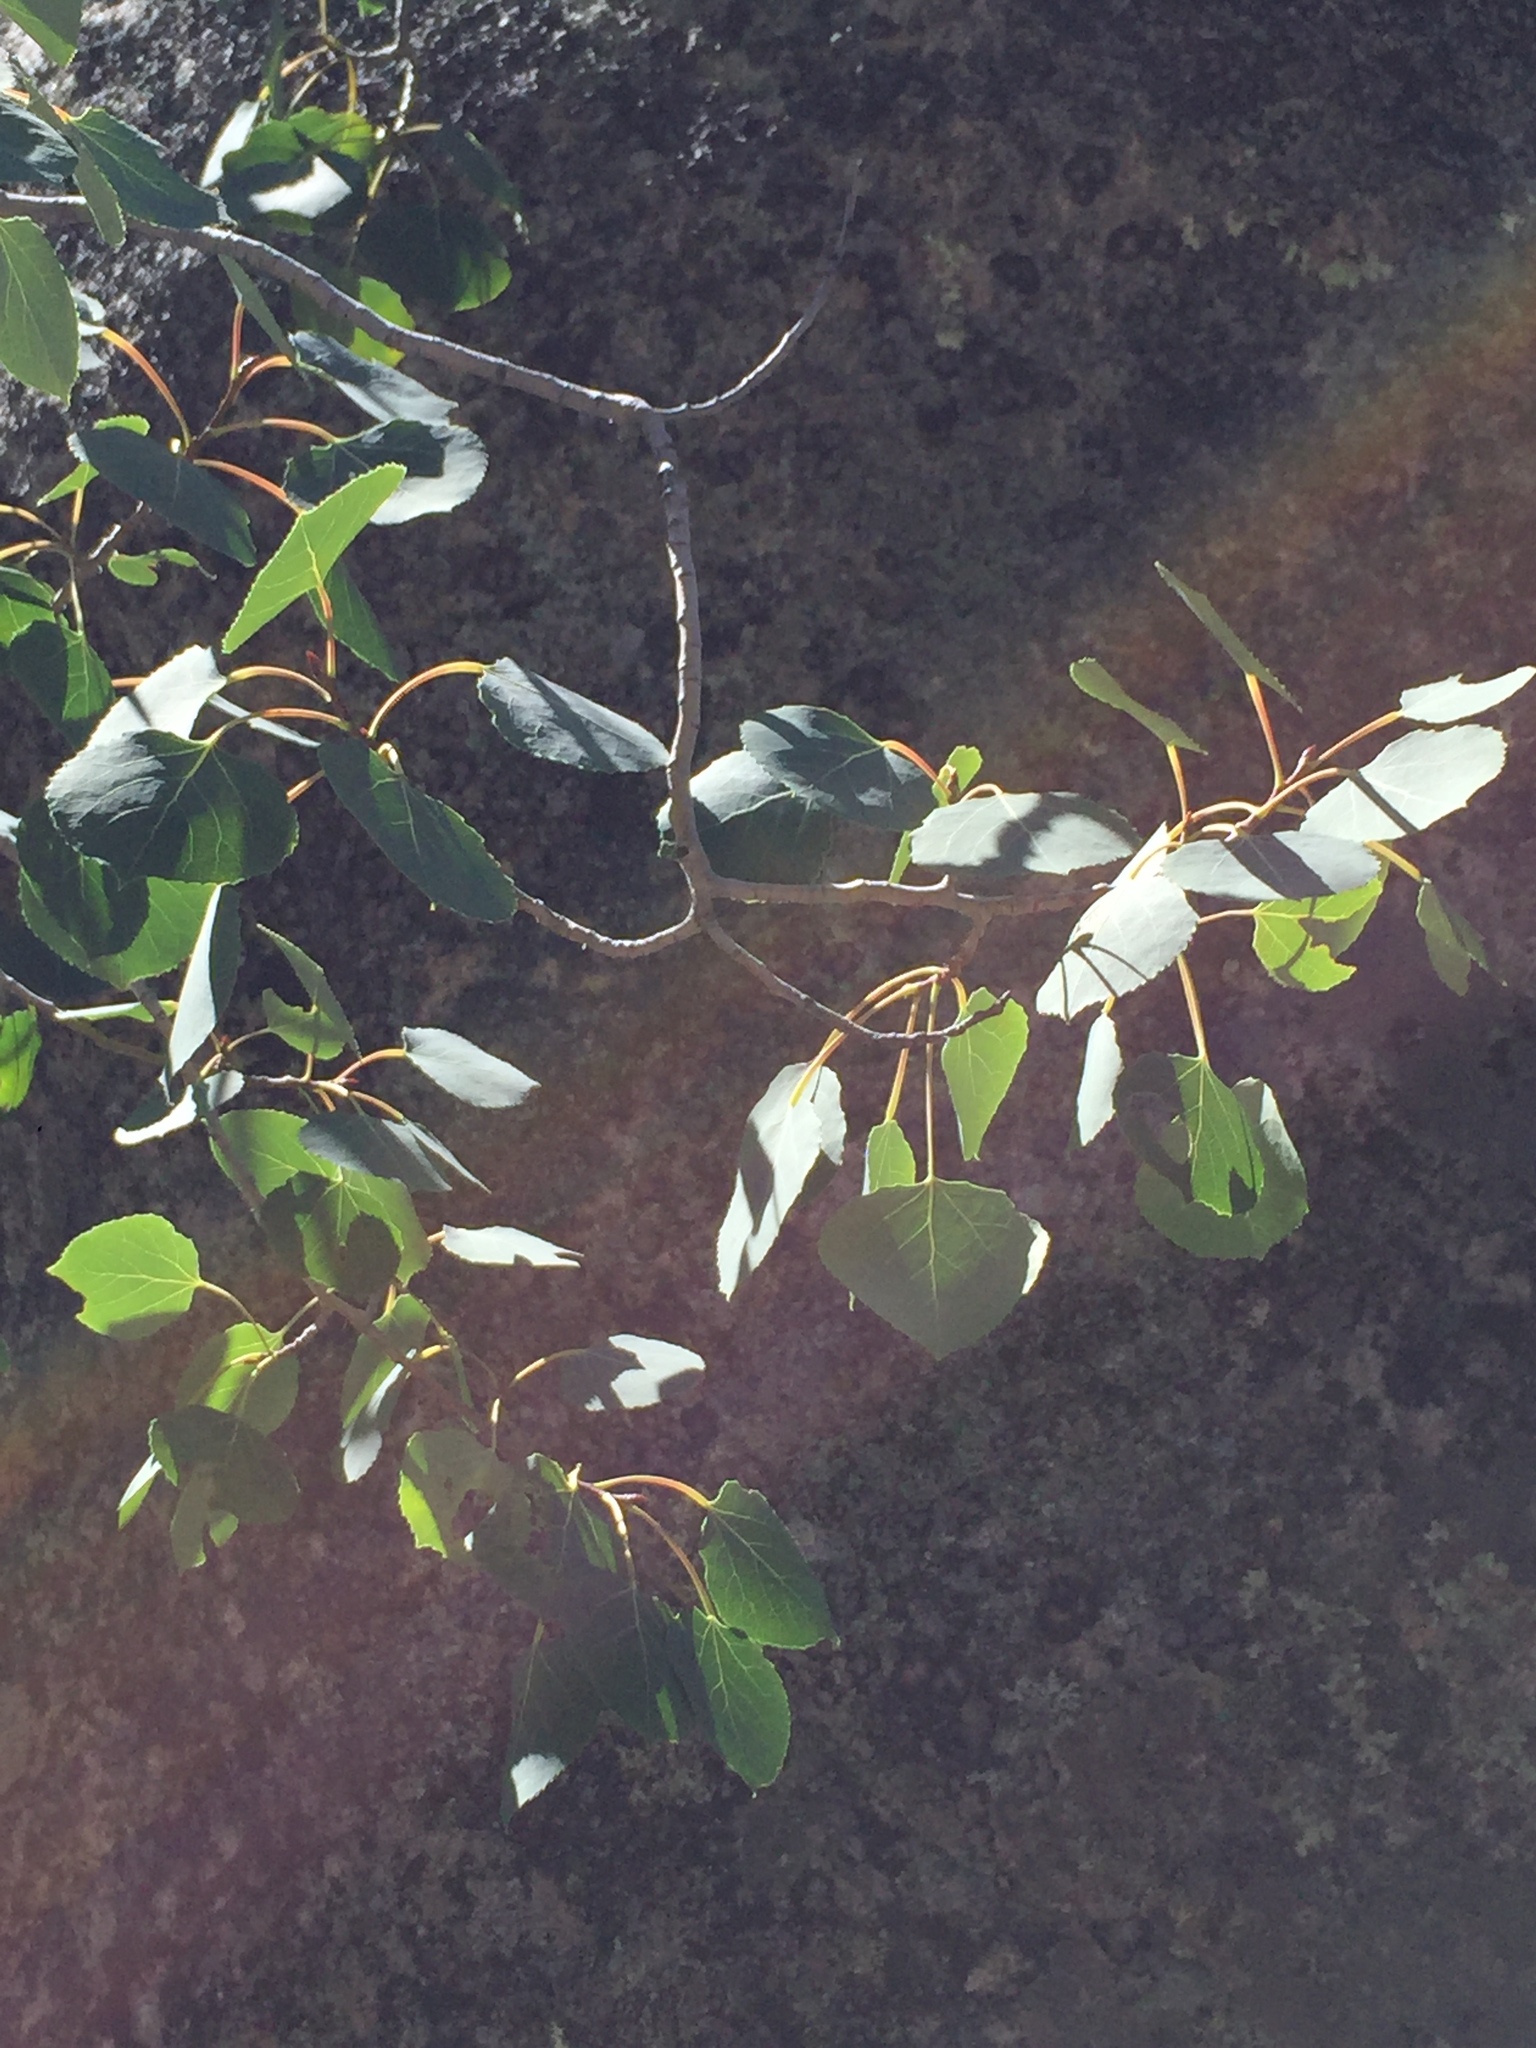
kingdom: Plantae
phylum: Tracheophyta
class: Magnoliopsida
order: Malpighiales
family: Salicaceae
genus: Populus
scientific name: Populus tremuloides
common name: Quaking aspen
